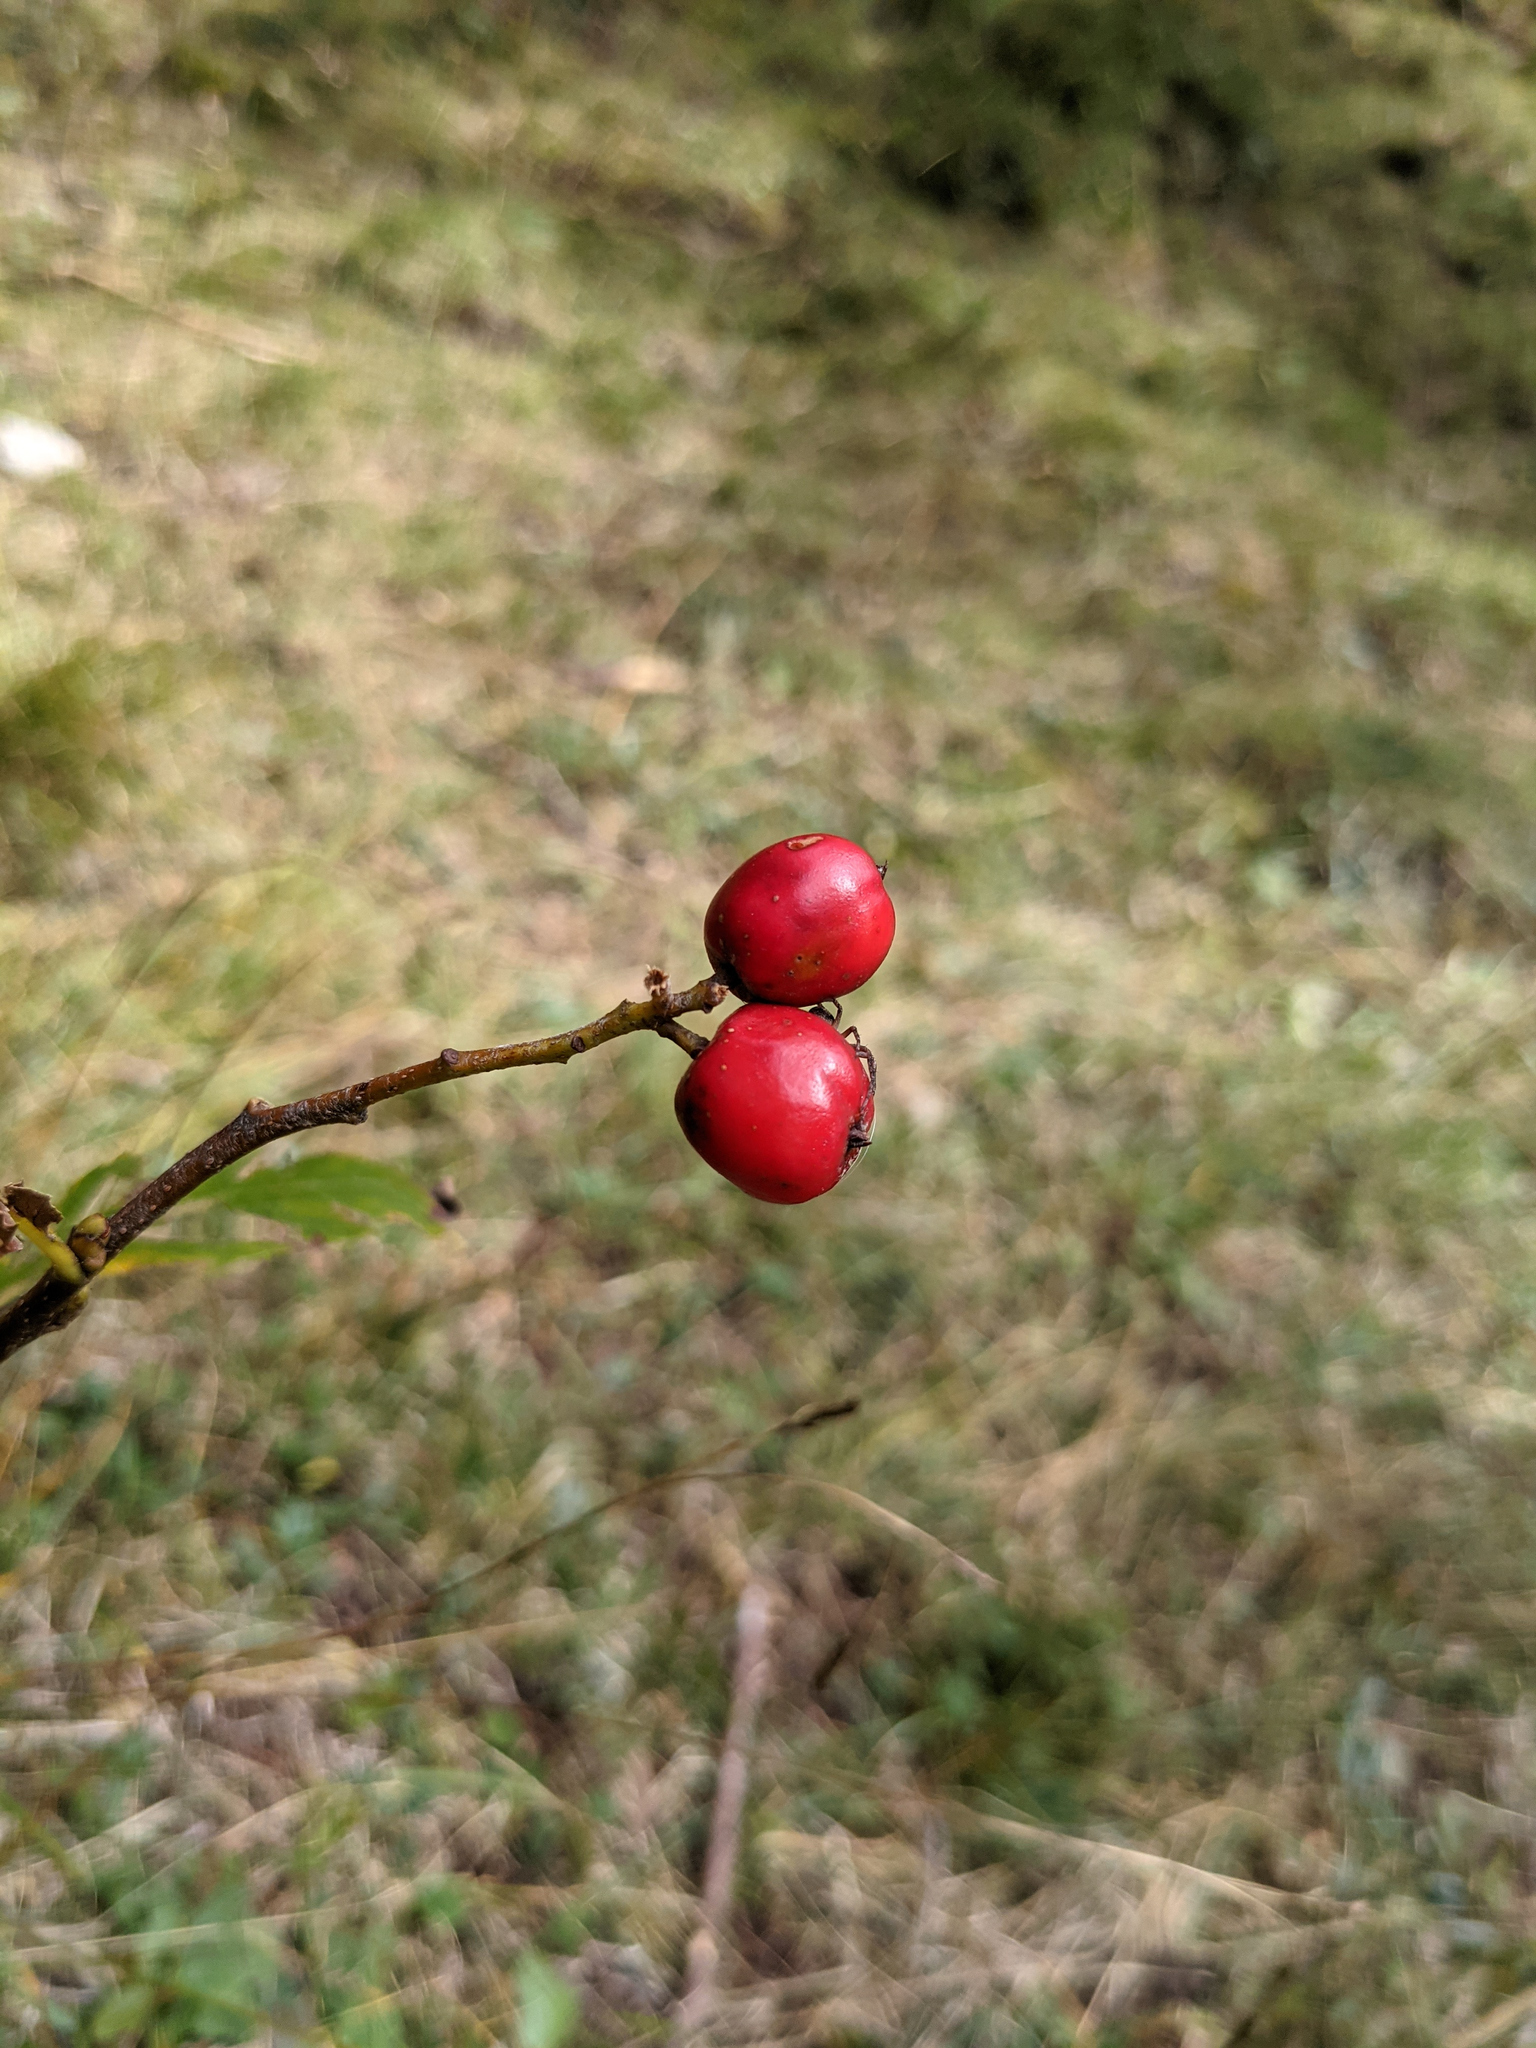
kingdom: Plantae
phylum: Tracheophyta
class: Magnoliopsida
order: Rosales
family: Rosaceae
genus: Chamaemespilus
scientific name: Chamaemespilus alpina
